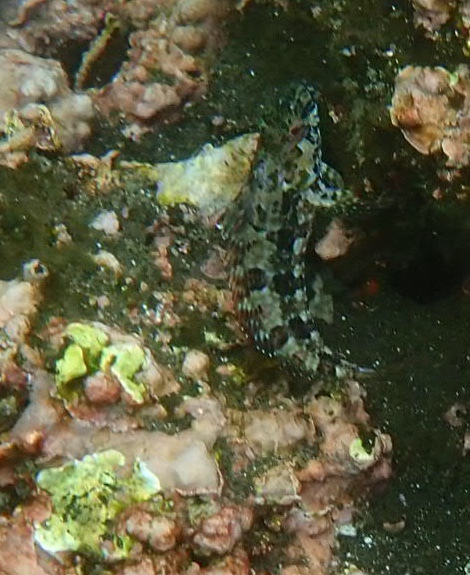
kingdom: Animalia
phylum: Chordata
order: Perciformes
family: Labrisomidae
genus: Gobioclinus
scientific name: Gobioclinus dendriticus
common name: Bravo clinid
